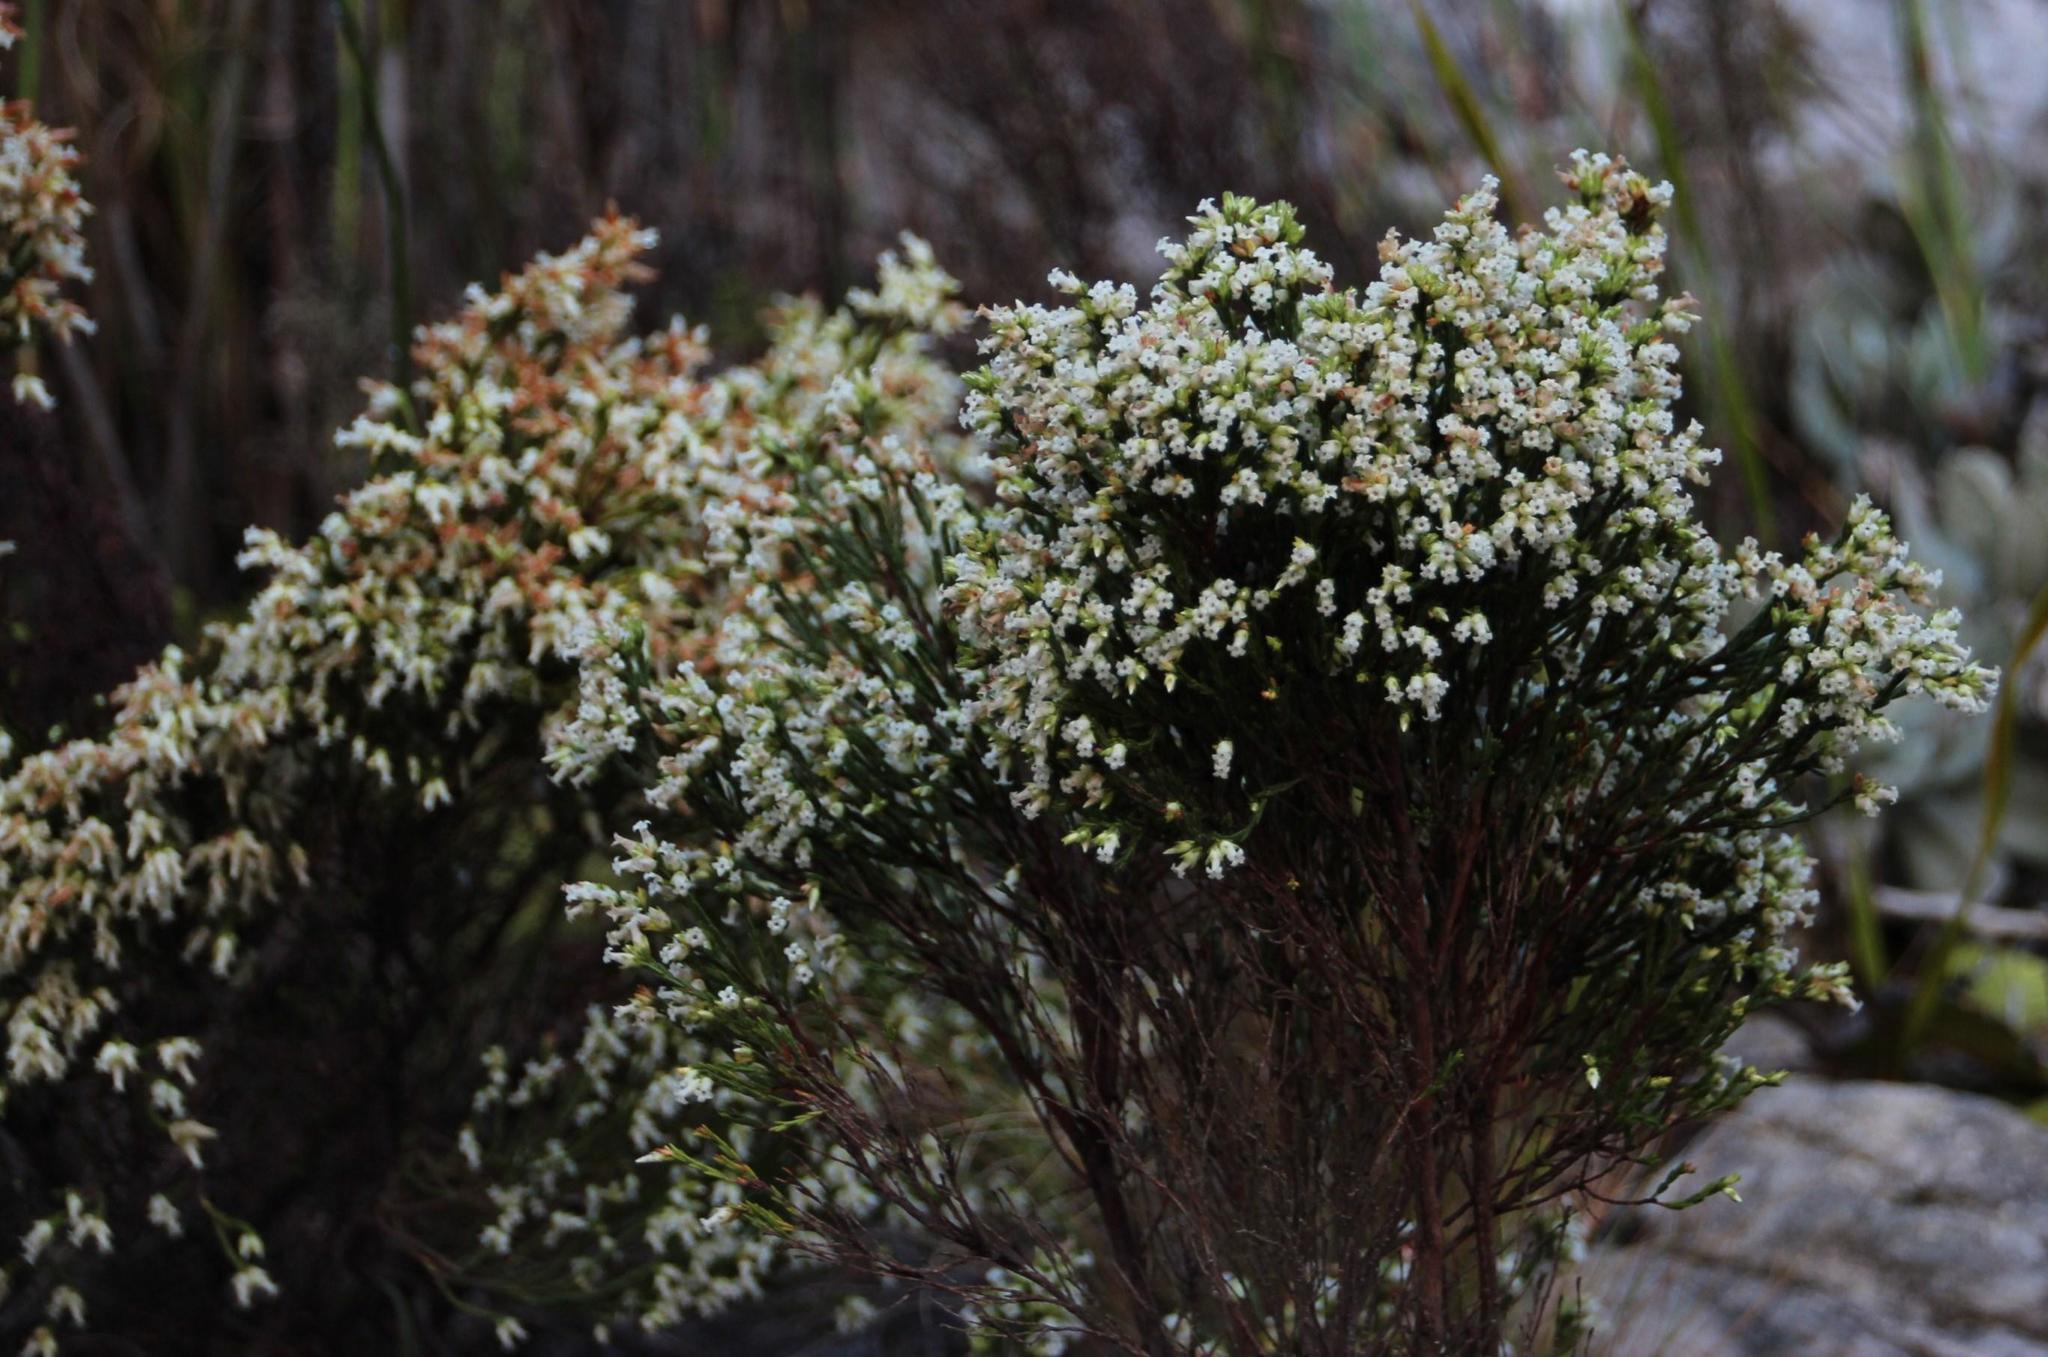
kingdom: Plantae
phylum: Tracheophyta
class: Magnoliopsida
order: Ericales
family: Ericaceae
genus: Erica
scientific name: Erica lutea
